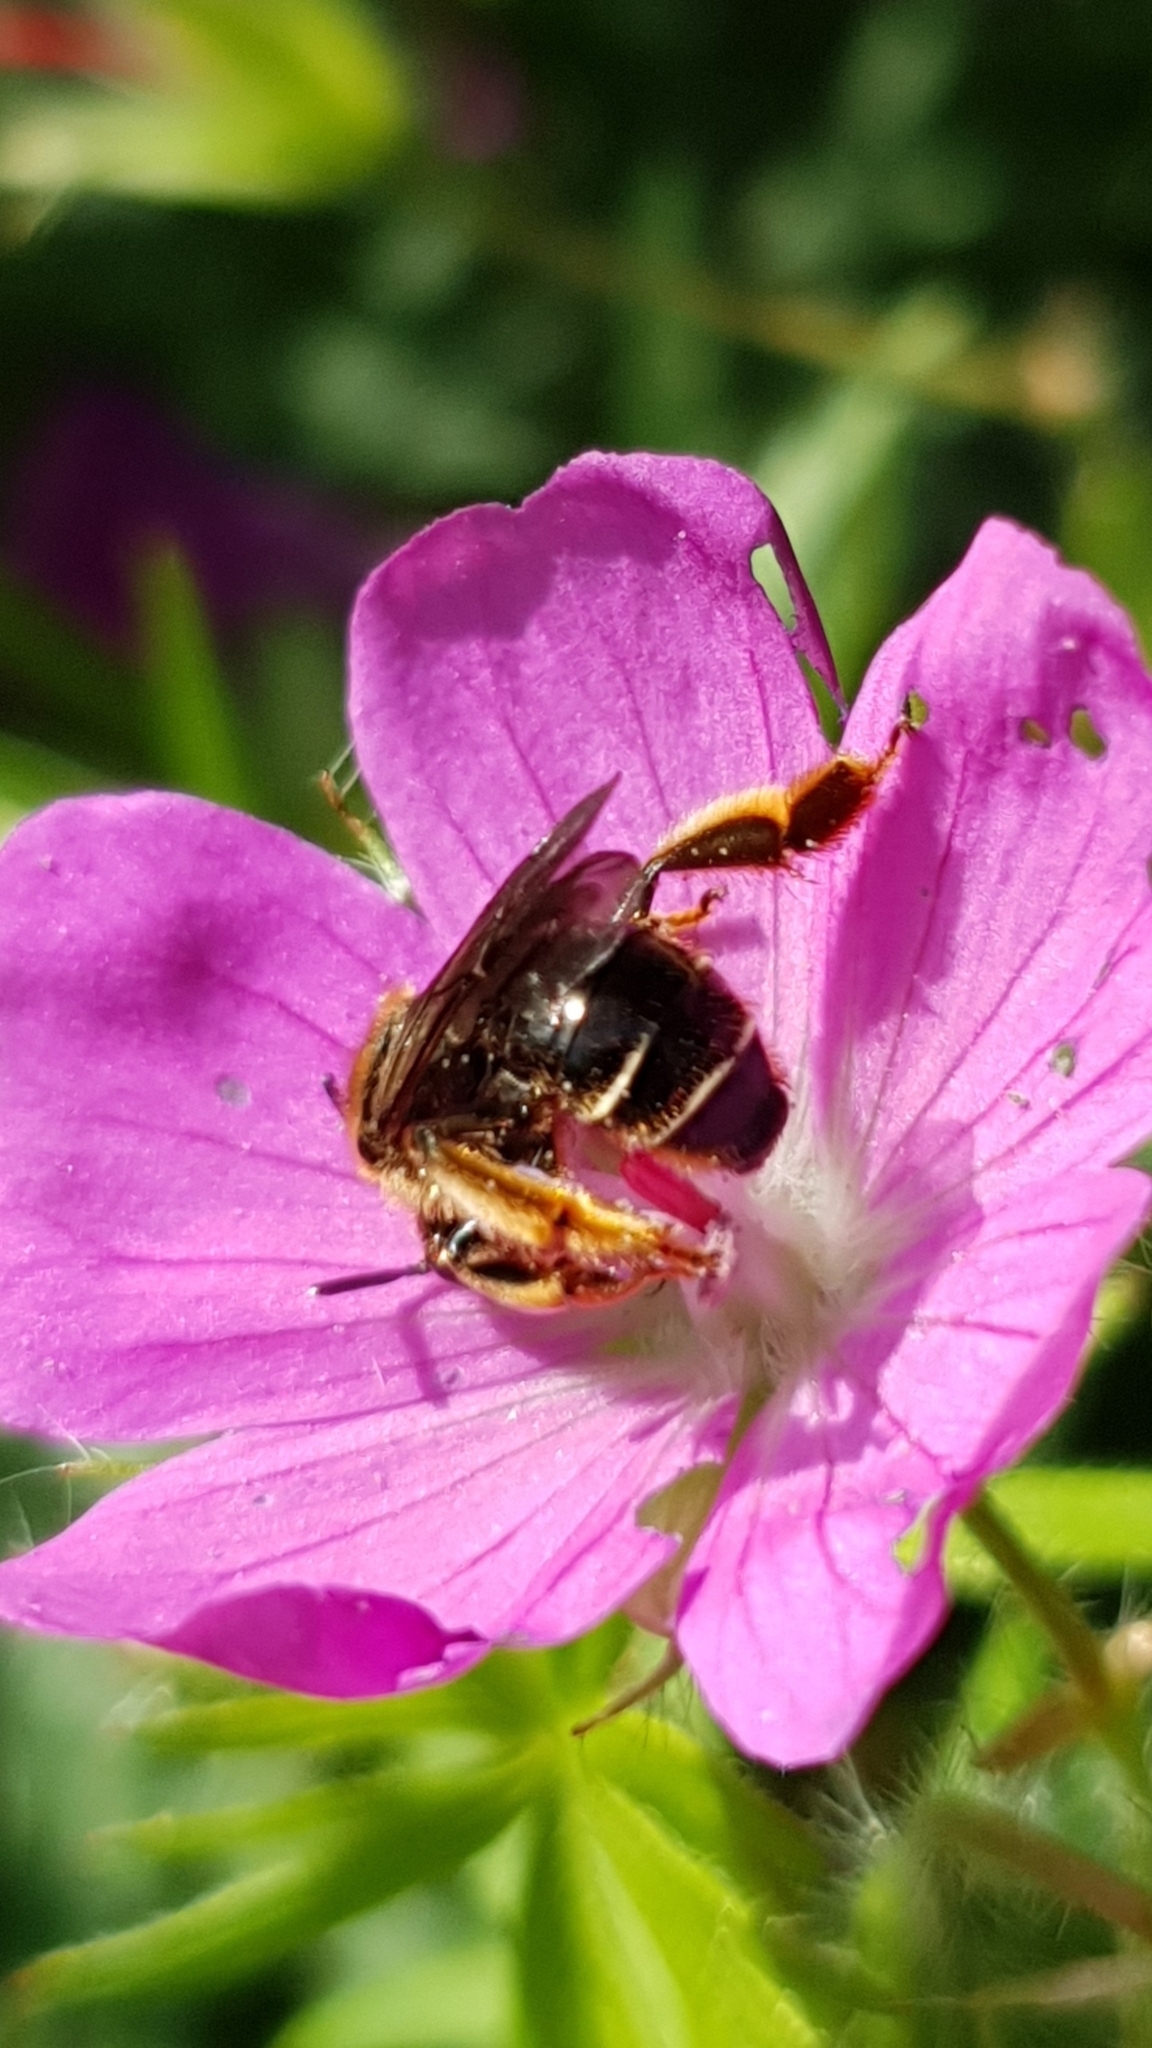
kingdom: Animalia
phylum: Arthropoda
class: Insecta
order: Hymenoptera
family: Melittidae
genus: Macropis
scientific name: Macropis fulvipes
